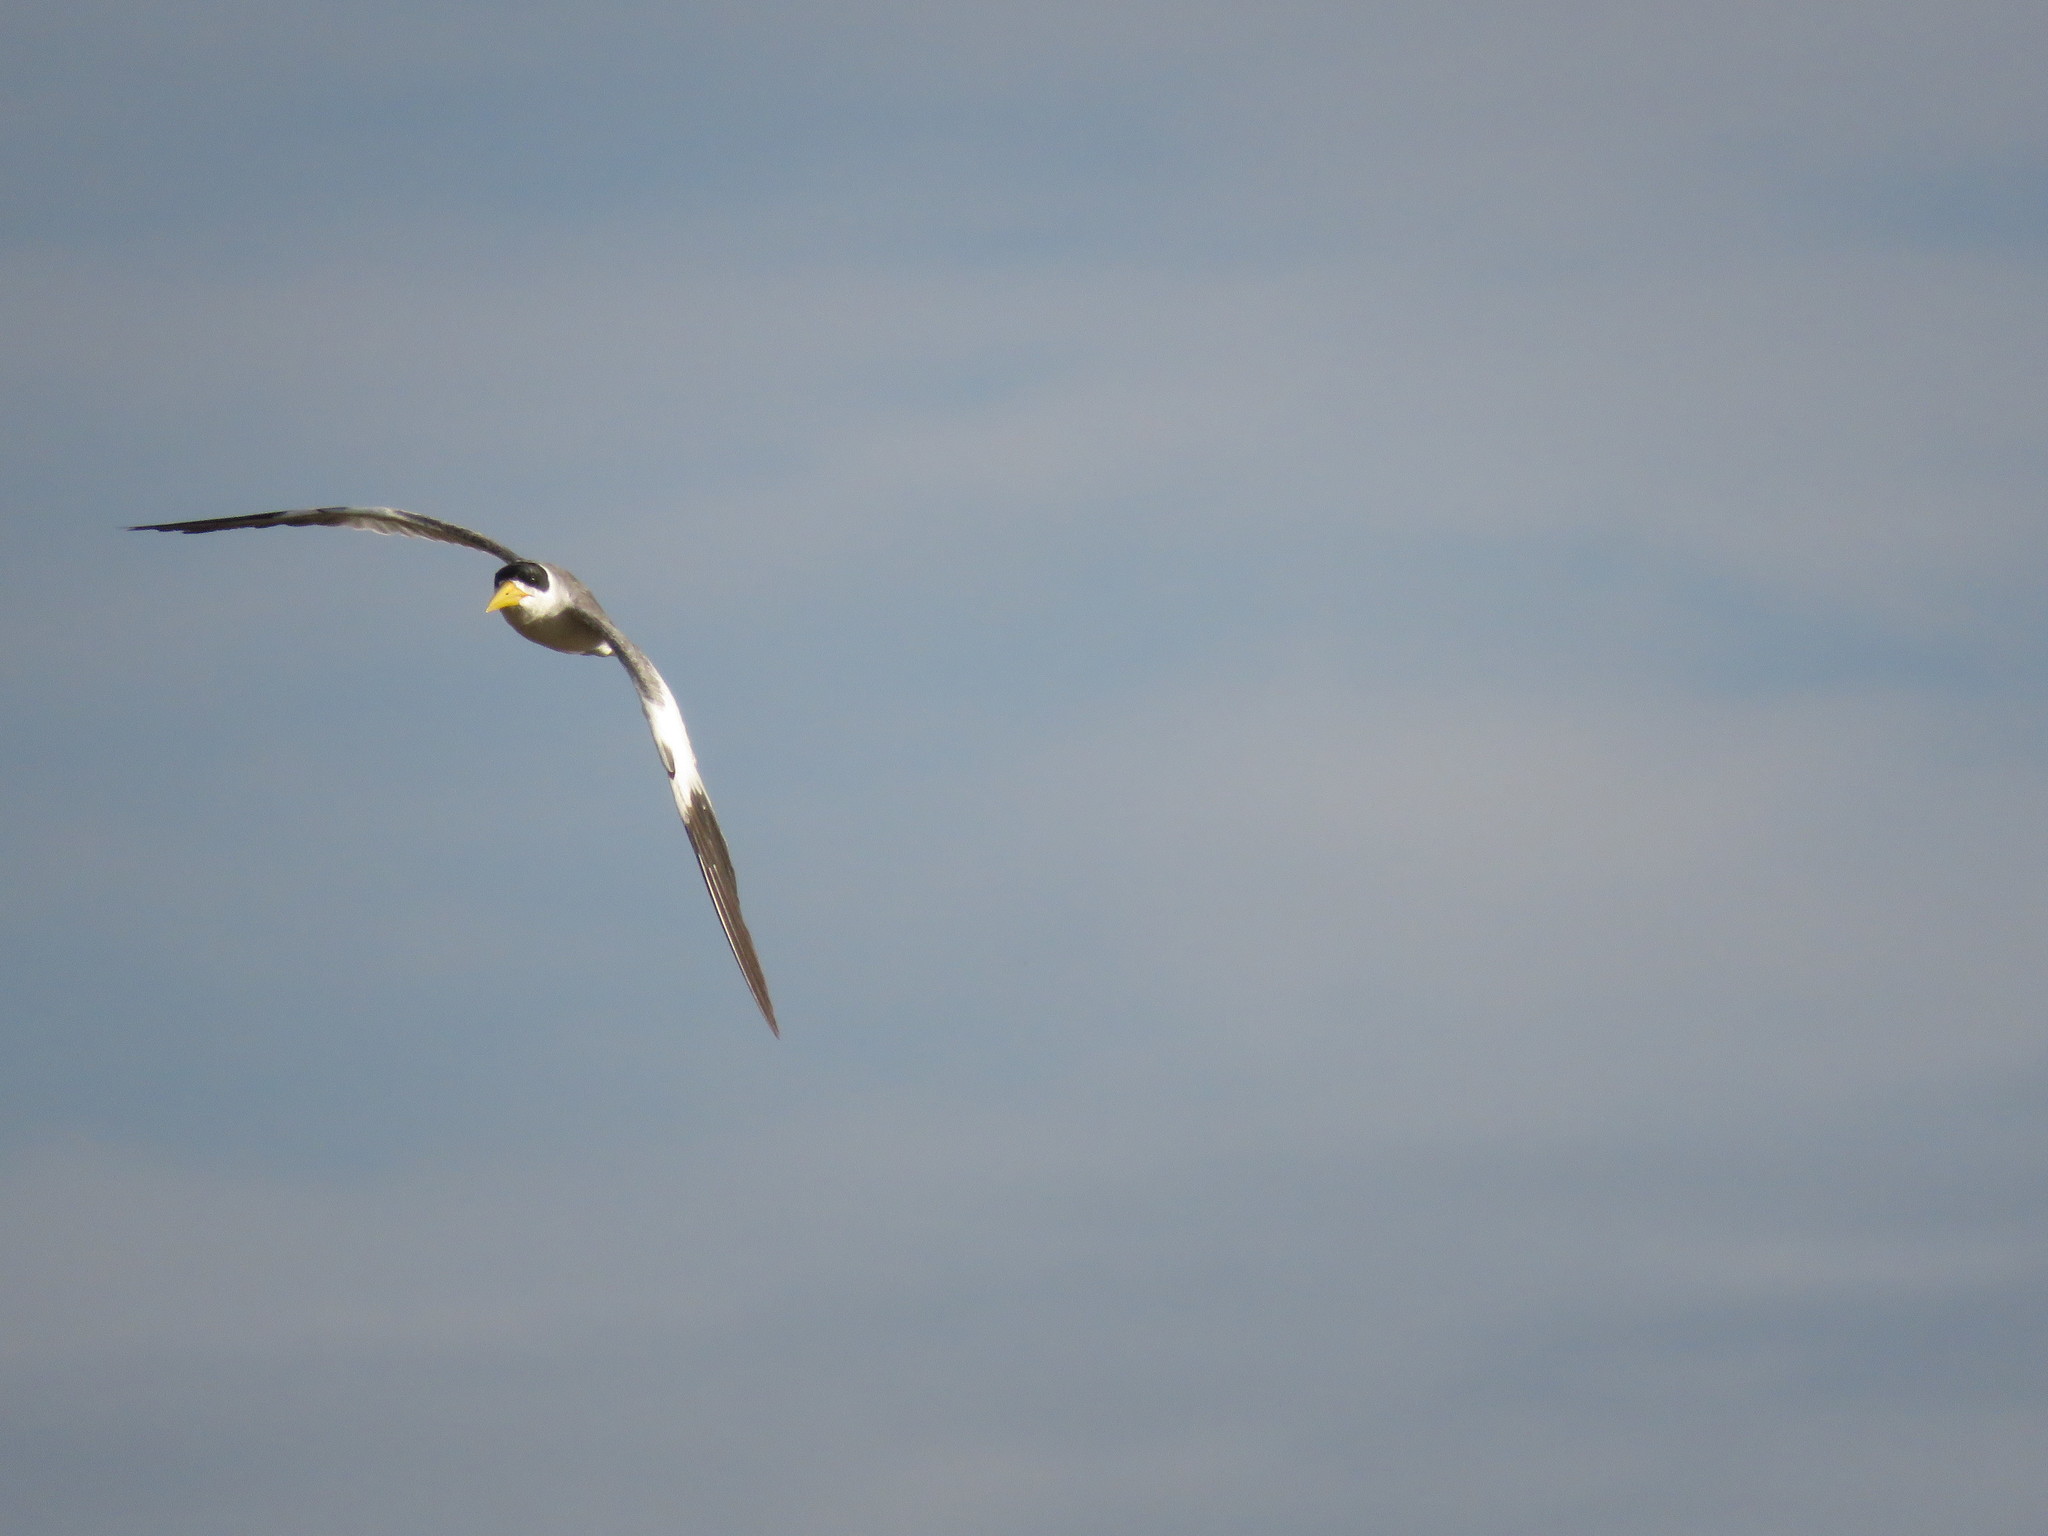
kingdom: Animalia
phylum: Chordata
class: Aves
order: Charadriiformes
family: Laridae
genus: Phaetusa
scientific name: Phaetusa simplex
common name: Large-billed tern
